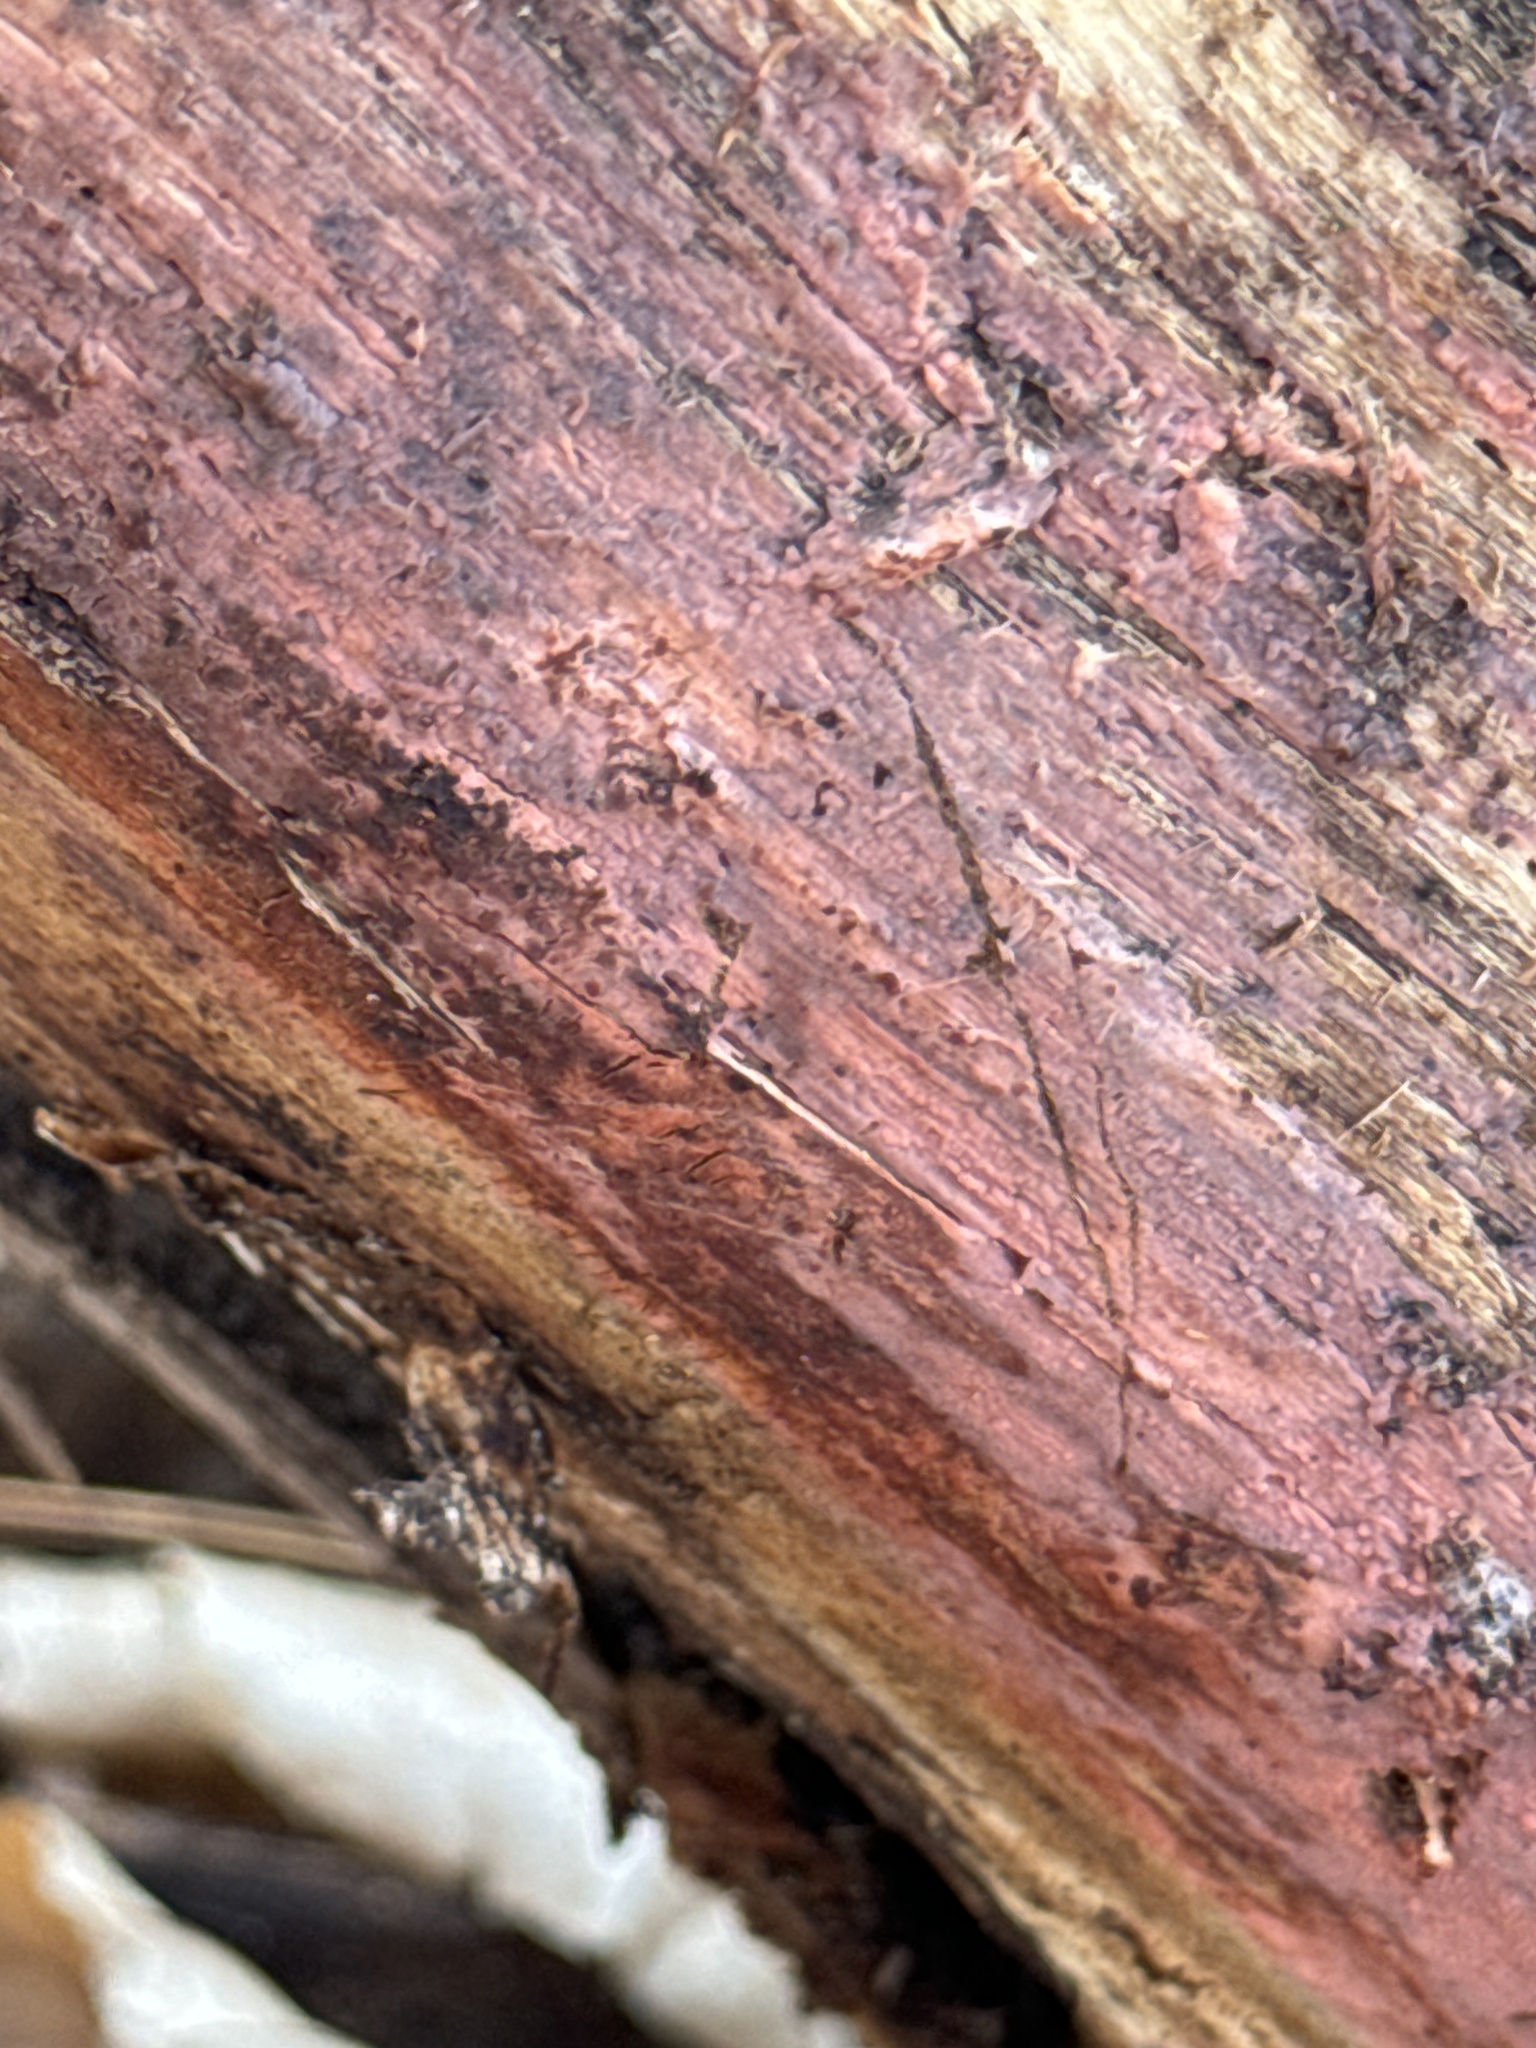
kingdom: Fungi
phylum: Basidiomycota
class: Agaricomycetes
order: Cantharellales
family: Tulasnellaceae
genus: Tulasnella
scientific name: Tulasnella violea
